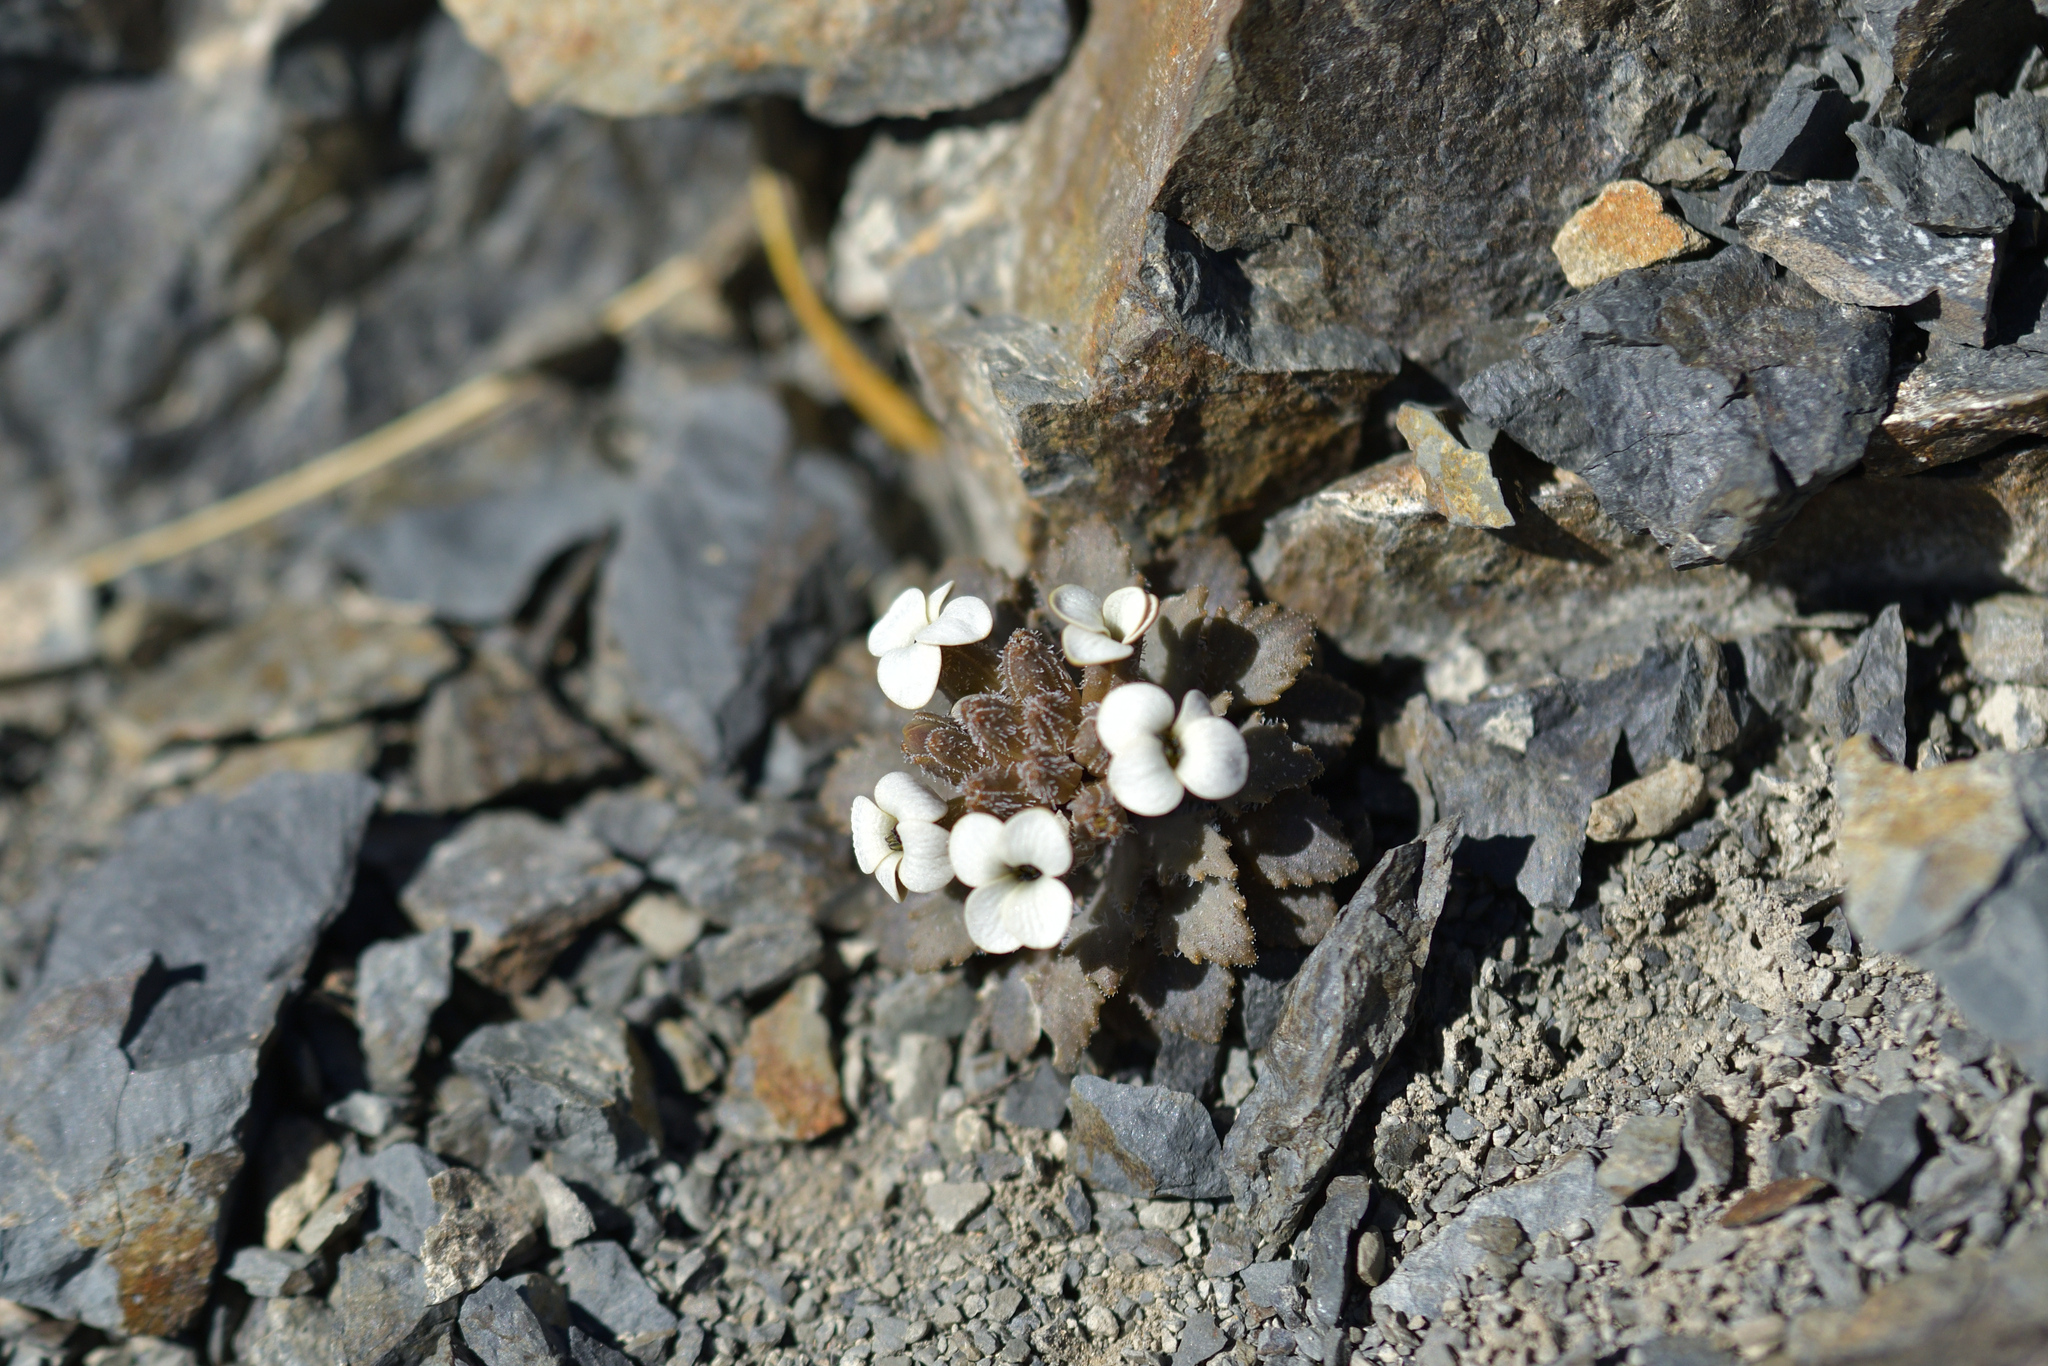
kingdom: Plantae
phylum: Tracheophyta
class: Magnoliopsida
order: Brassicales
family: Brassicaceae
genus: Notothlaspi
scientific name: Notothlaspi rosulatum
